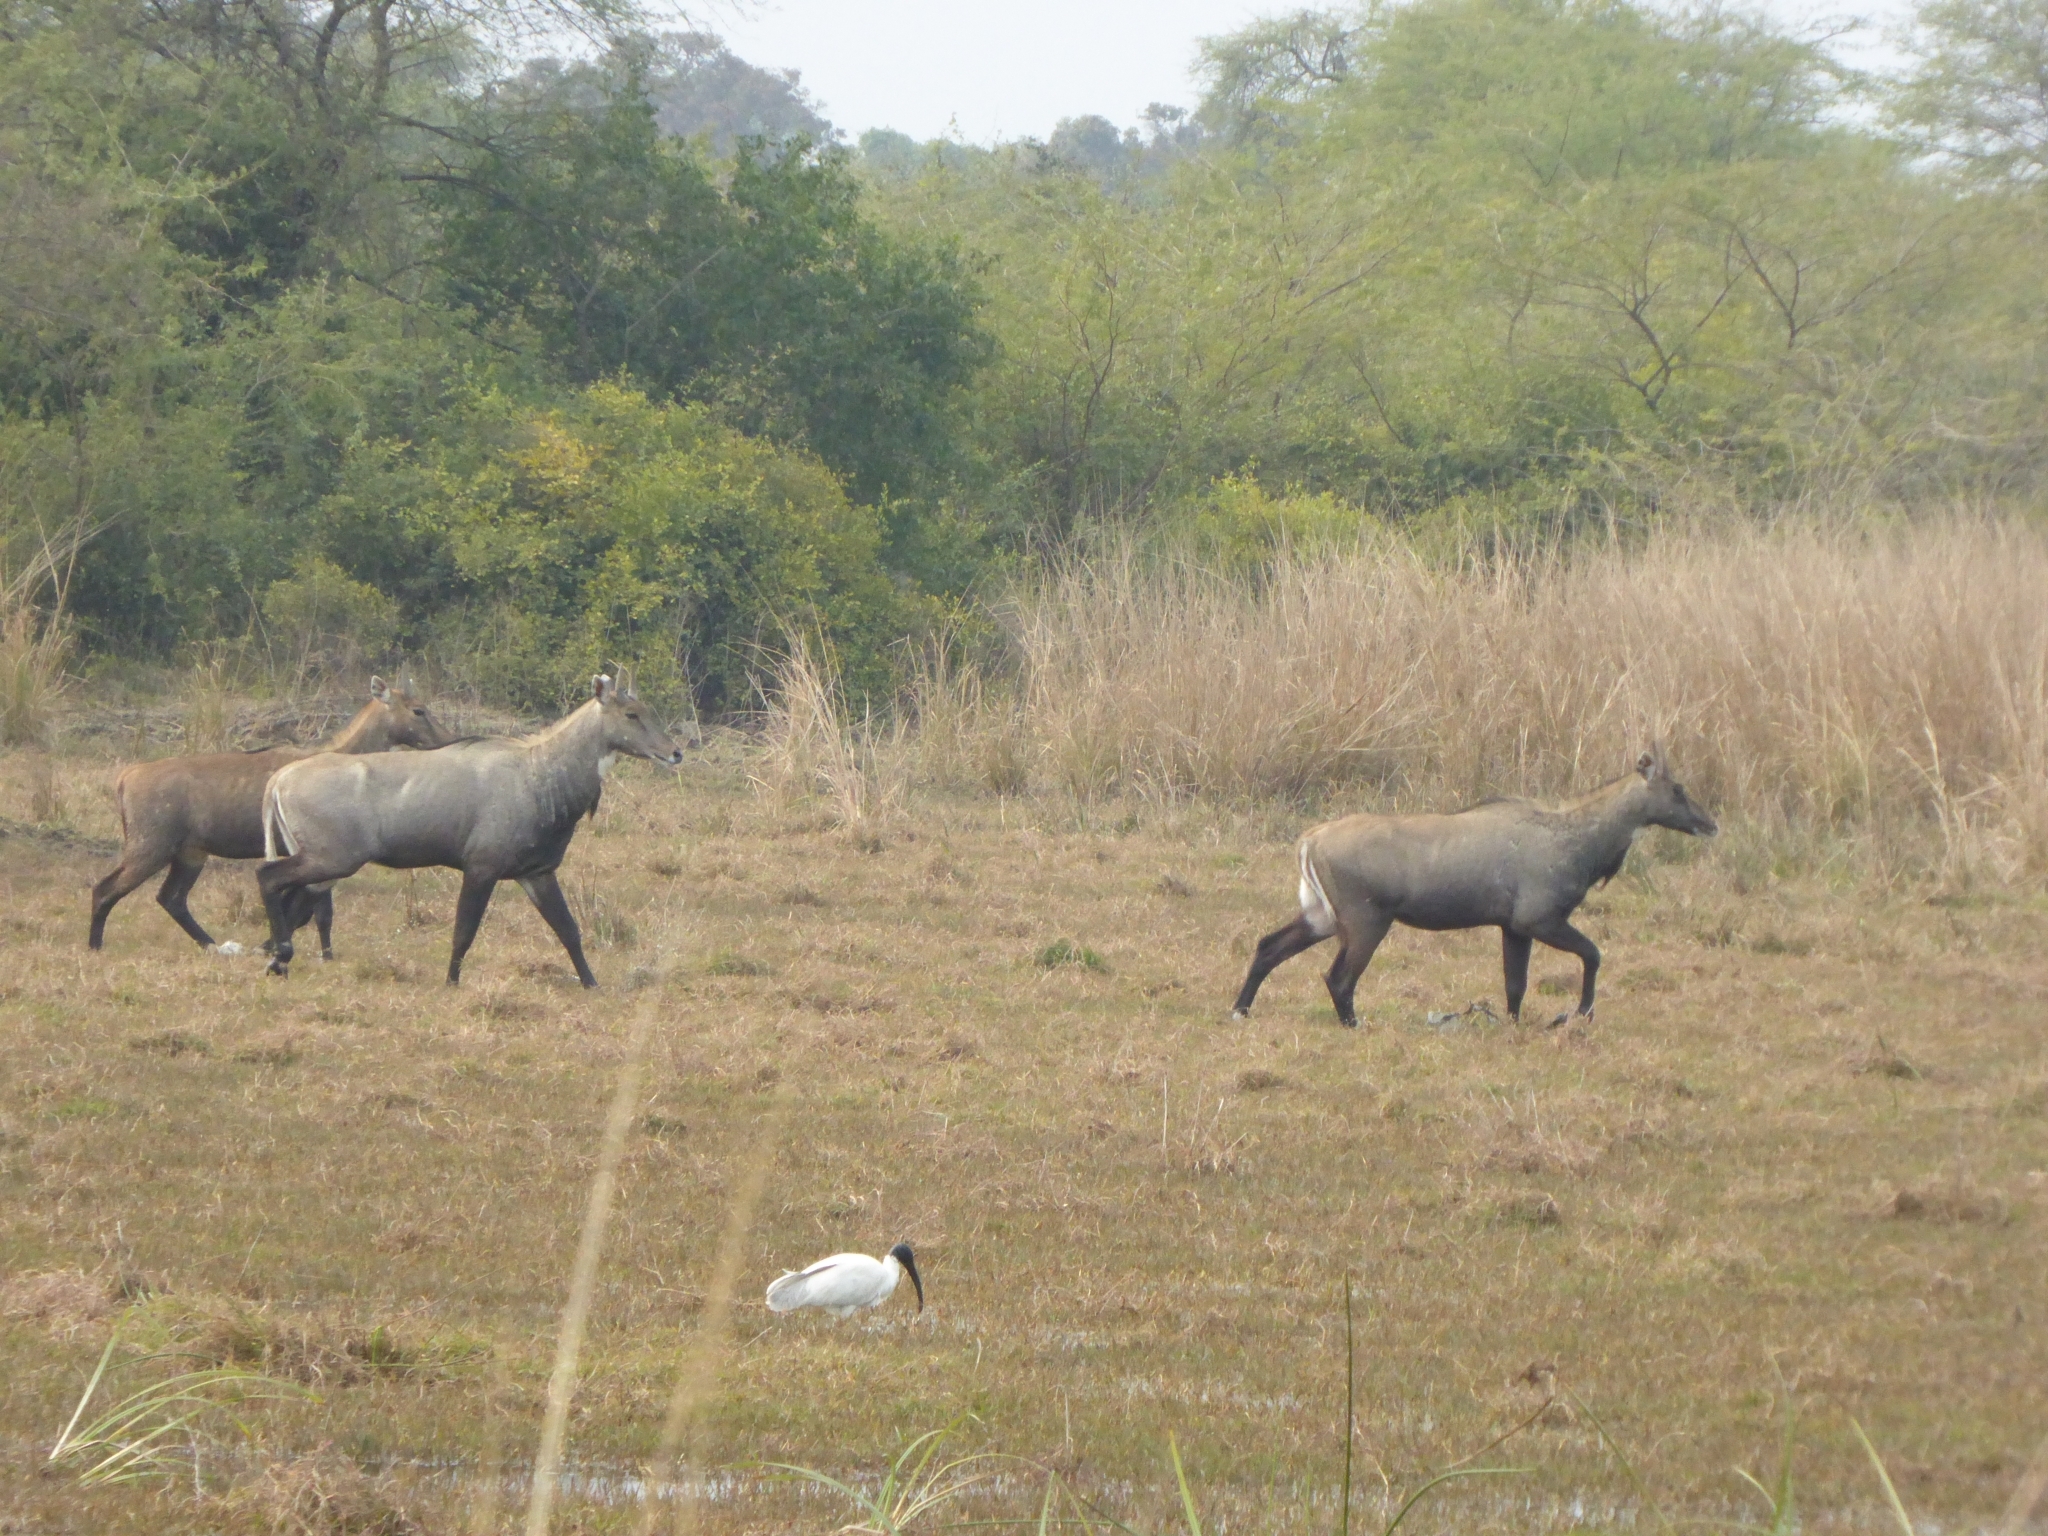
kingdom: Animalia
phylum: Chordata
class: Mammalia
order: Artiodactyla
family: Bovidae
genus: Boselaphus
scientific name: Boselaphus tragocamelus
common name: Nilgai
